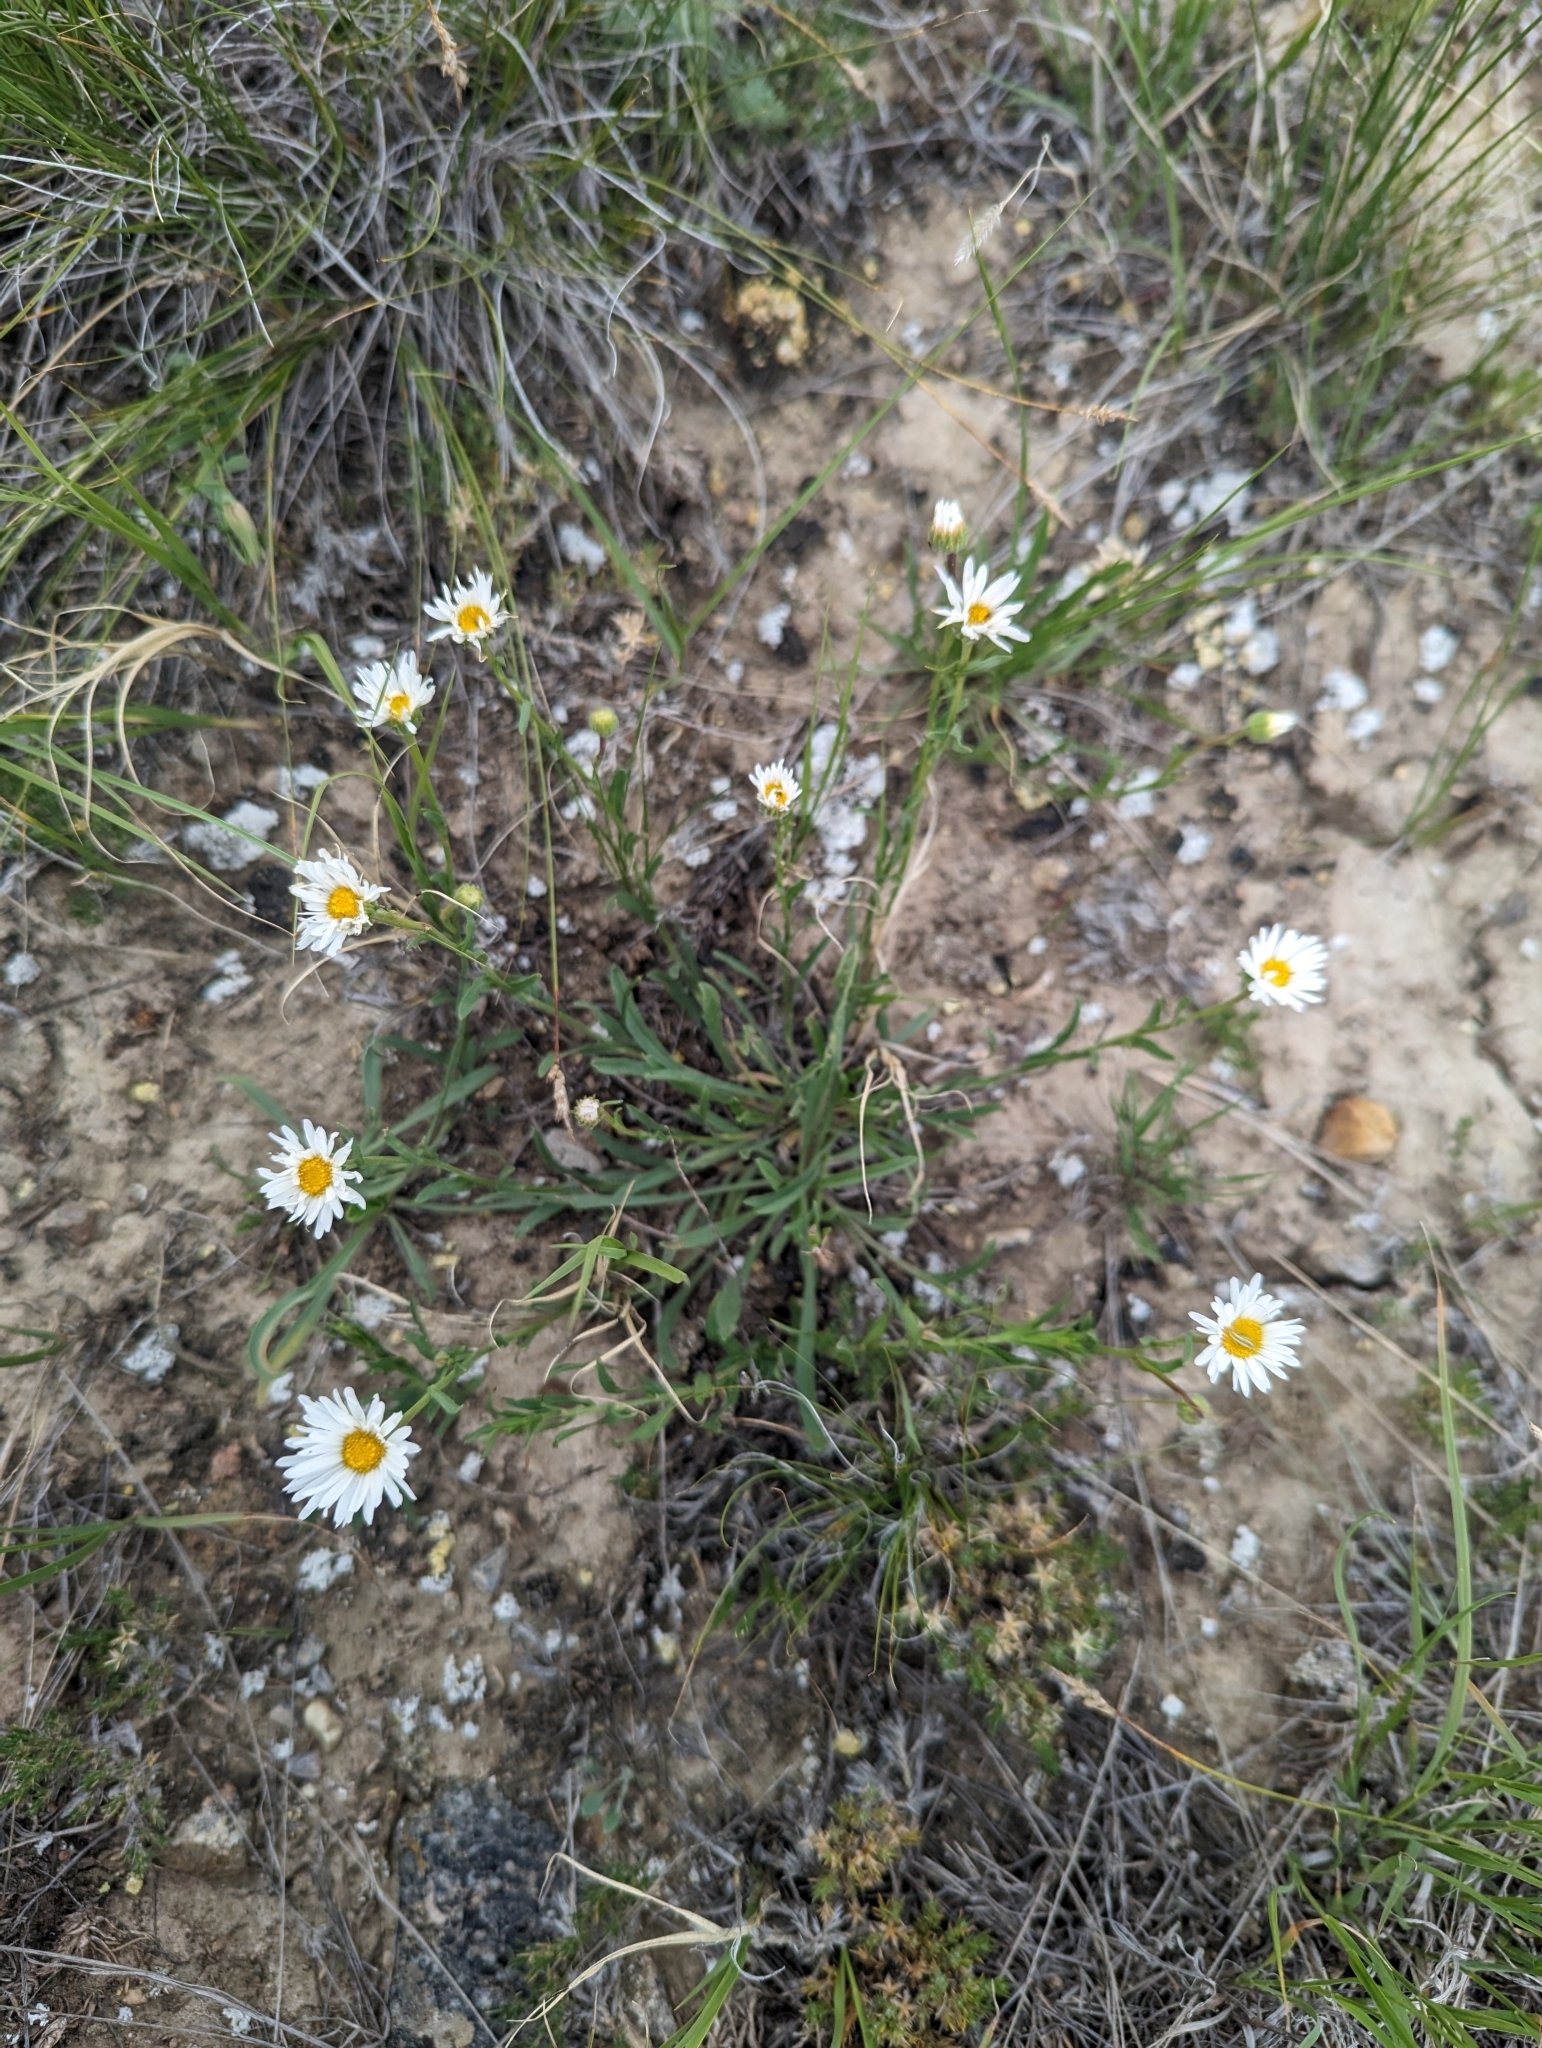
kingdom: Plantae
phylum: Tracheophyta
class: Magnoliopsida
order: Asterales
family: Asteraceae
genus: Erigeron
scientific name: Erigeron caespitosus
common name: Tufted fleabane
